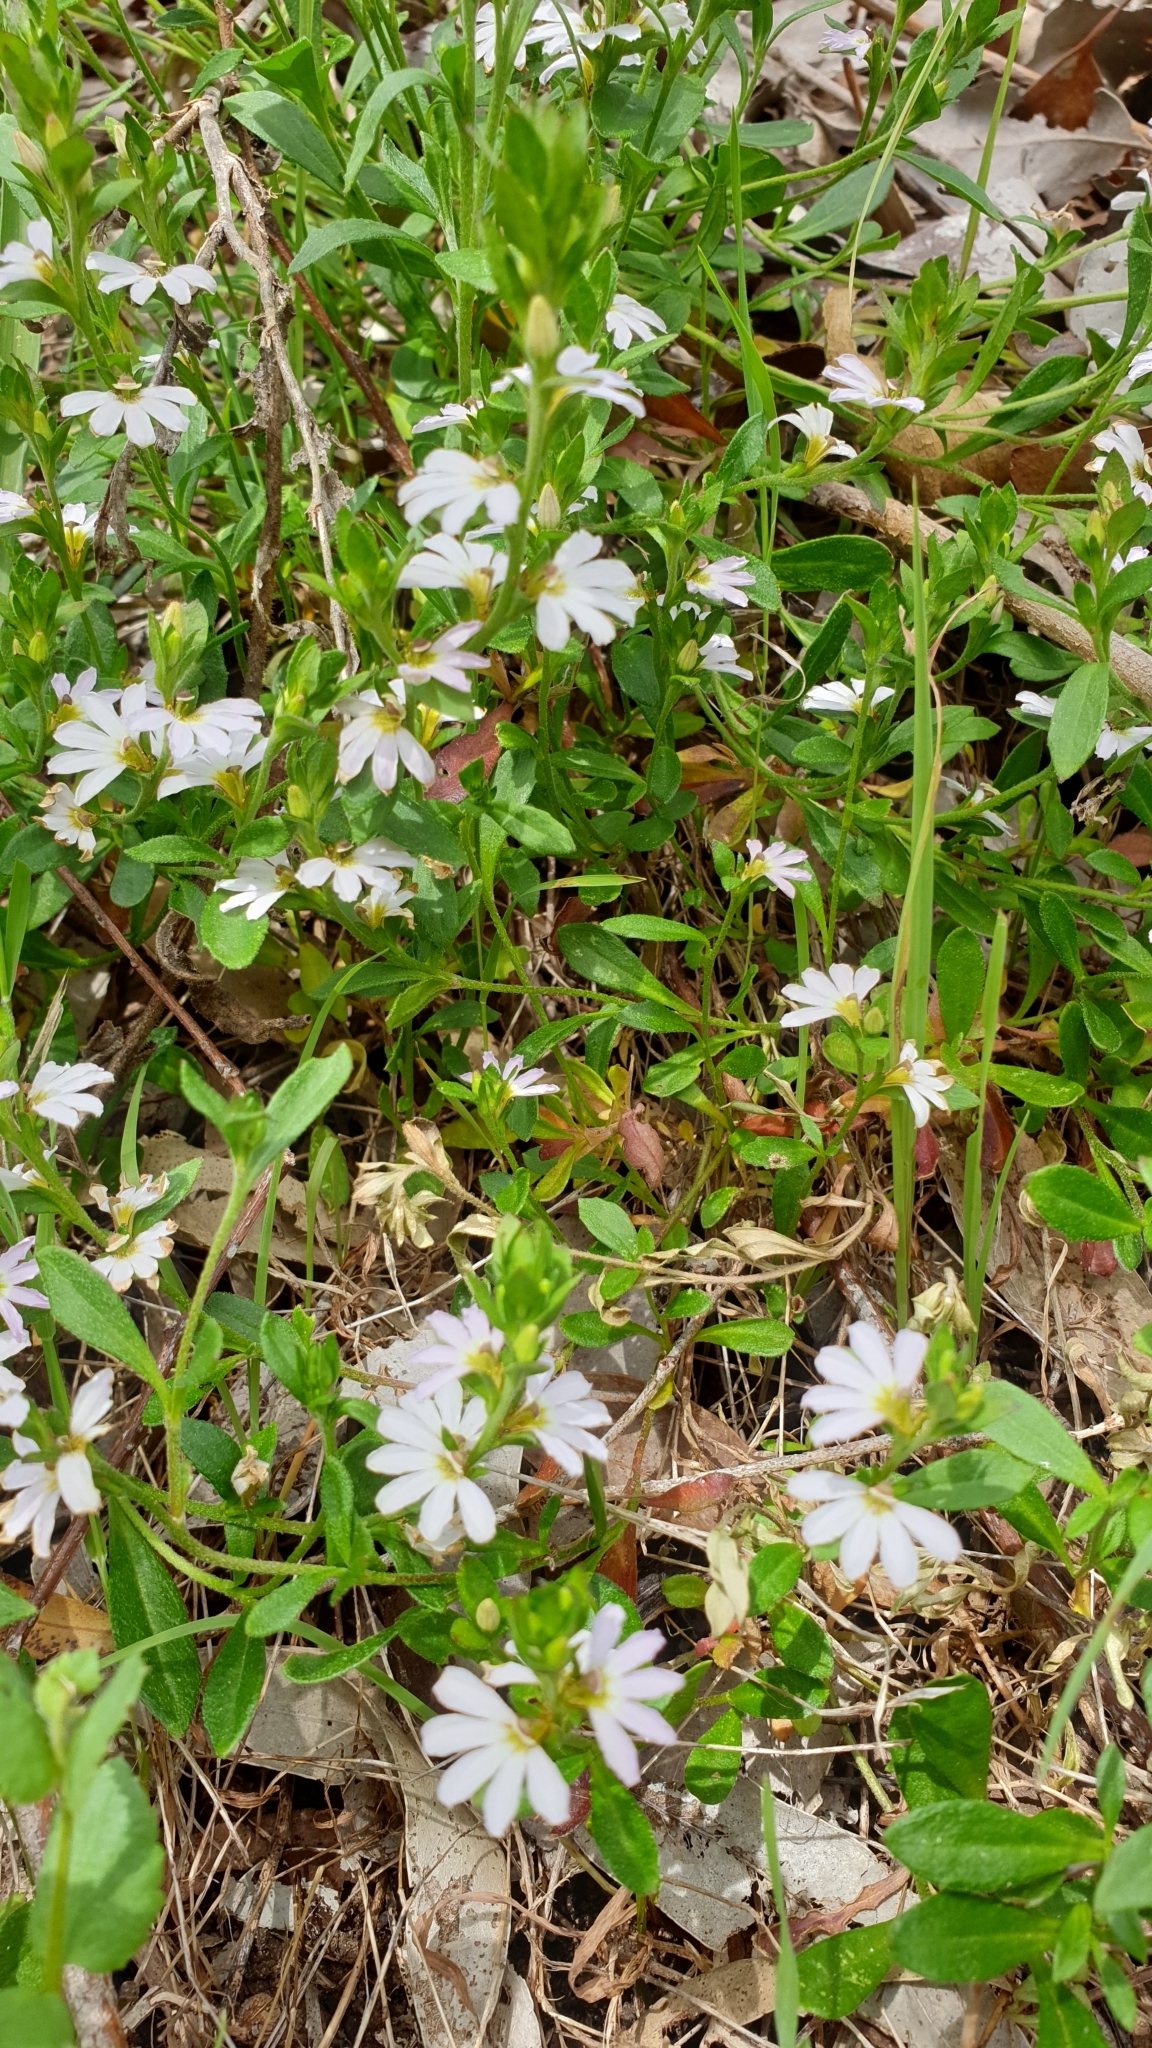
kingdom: Plantae
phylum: Tracheophyta
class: Magnoliopsida
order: Asterales
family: Goodeniaceae
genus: Scaevola
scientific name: Scaevola albida
